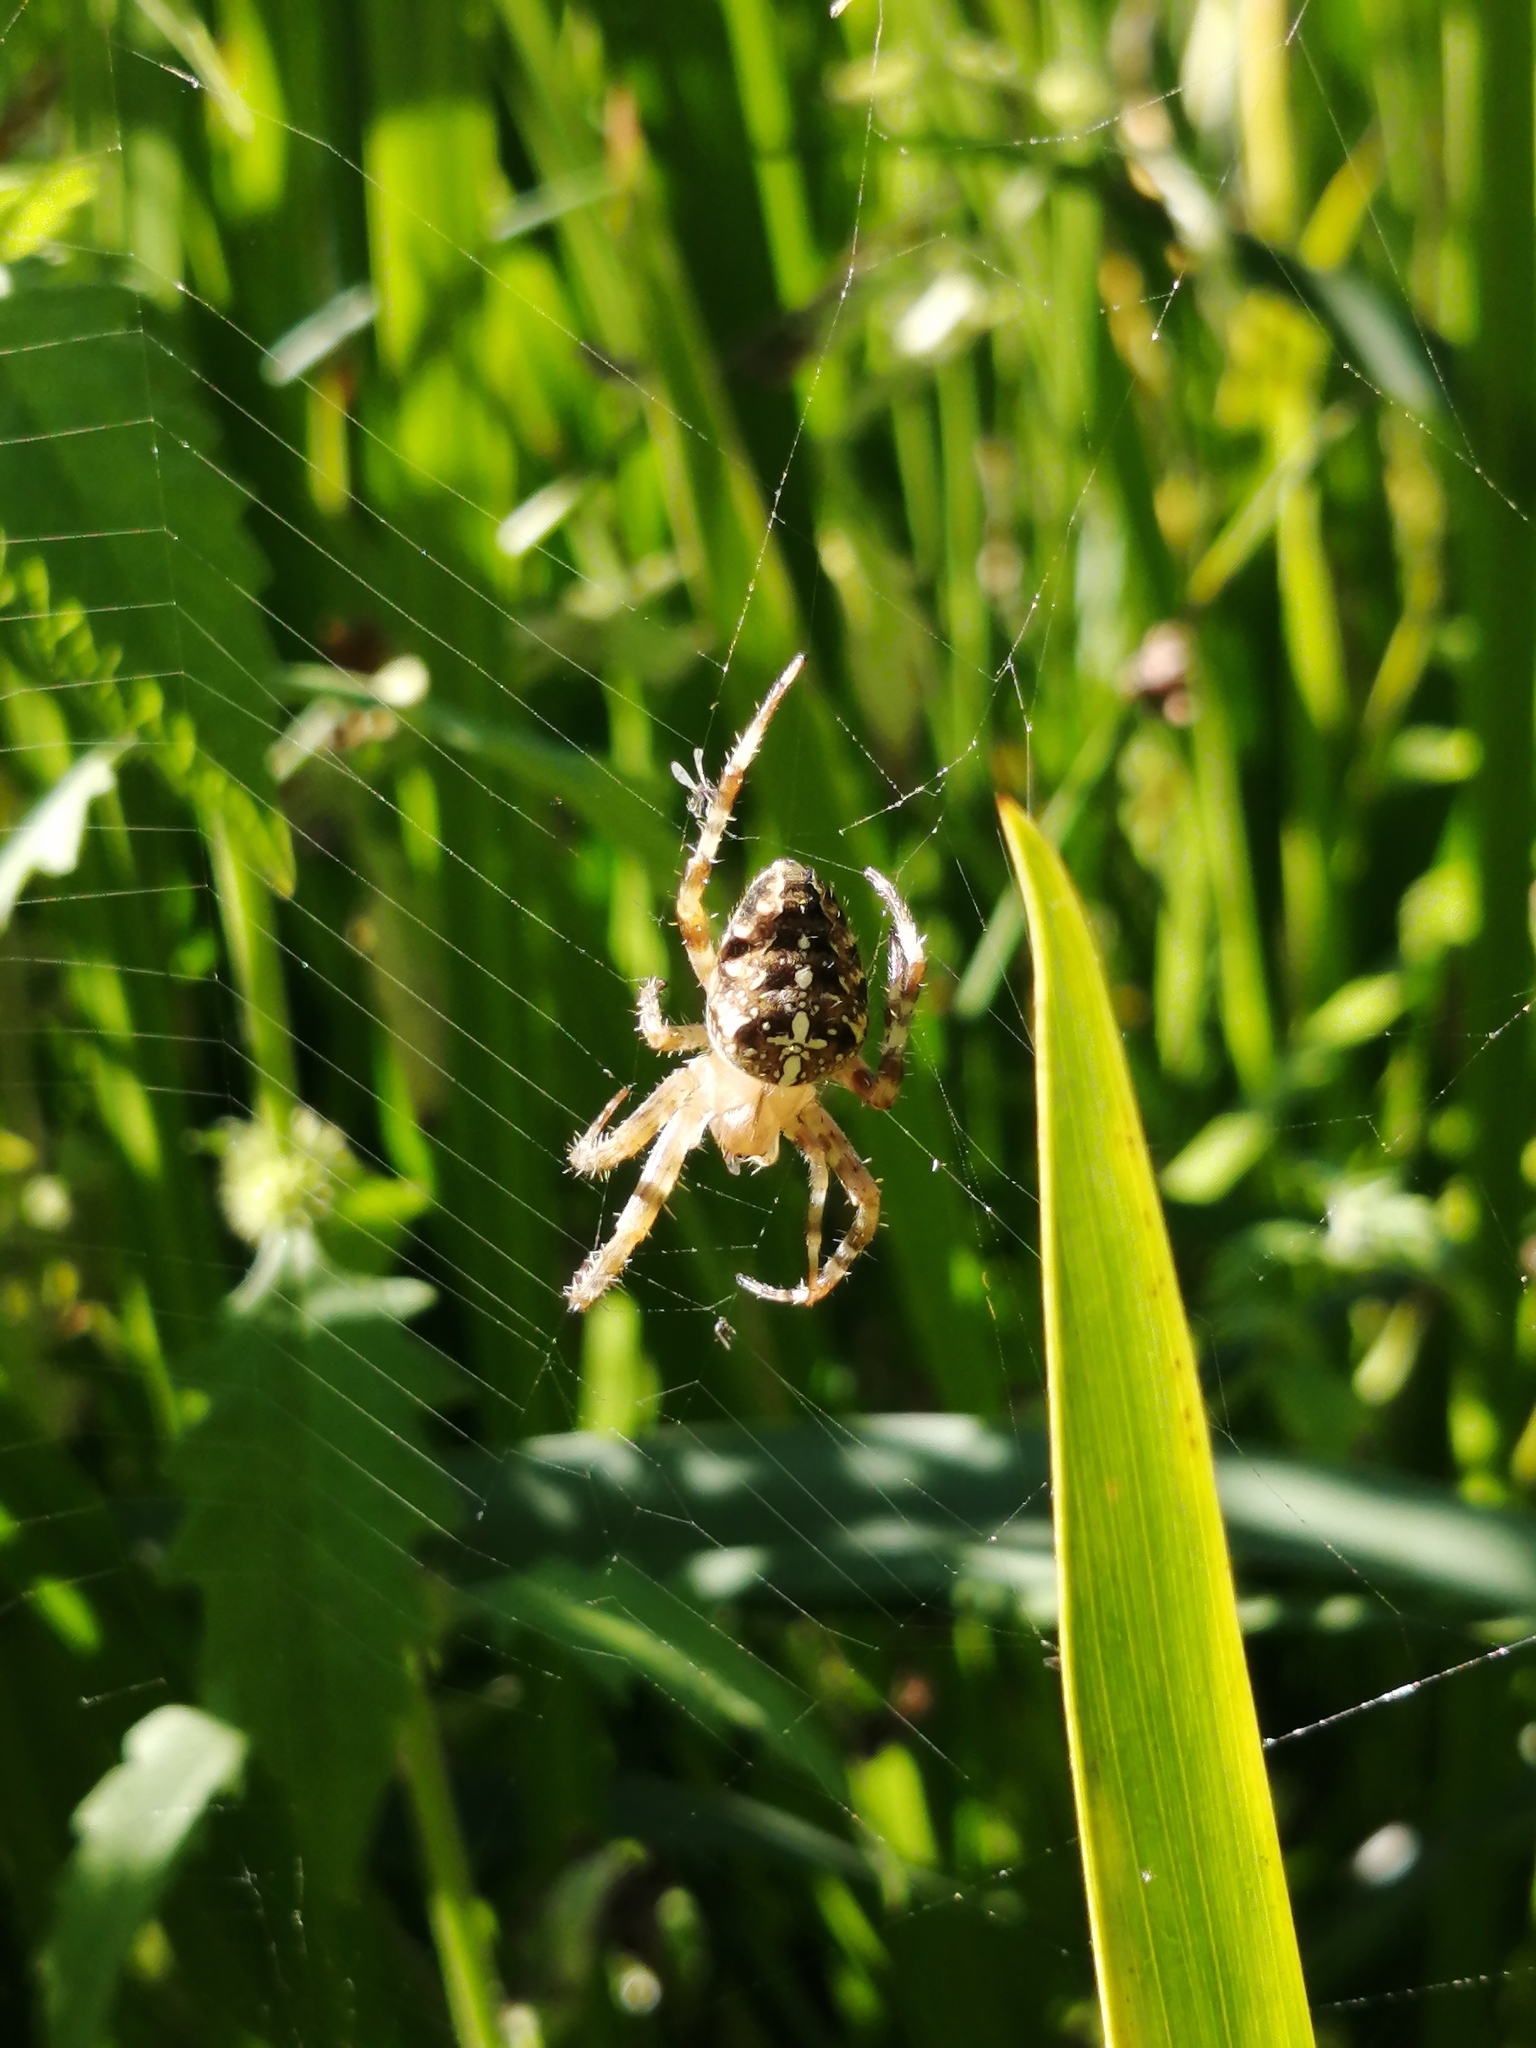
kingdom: Animalia
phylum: Arthropoda
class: Arachnida
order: Araneae
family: Araneidae
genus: Araneus
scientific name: Araneus diadematus
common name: Cross orbweaver
